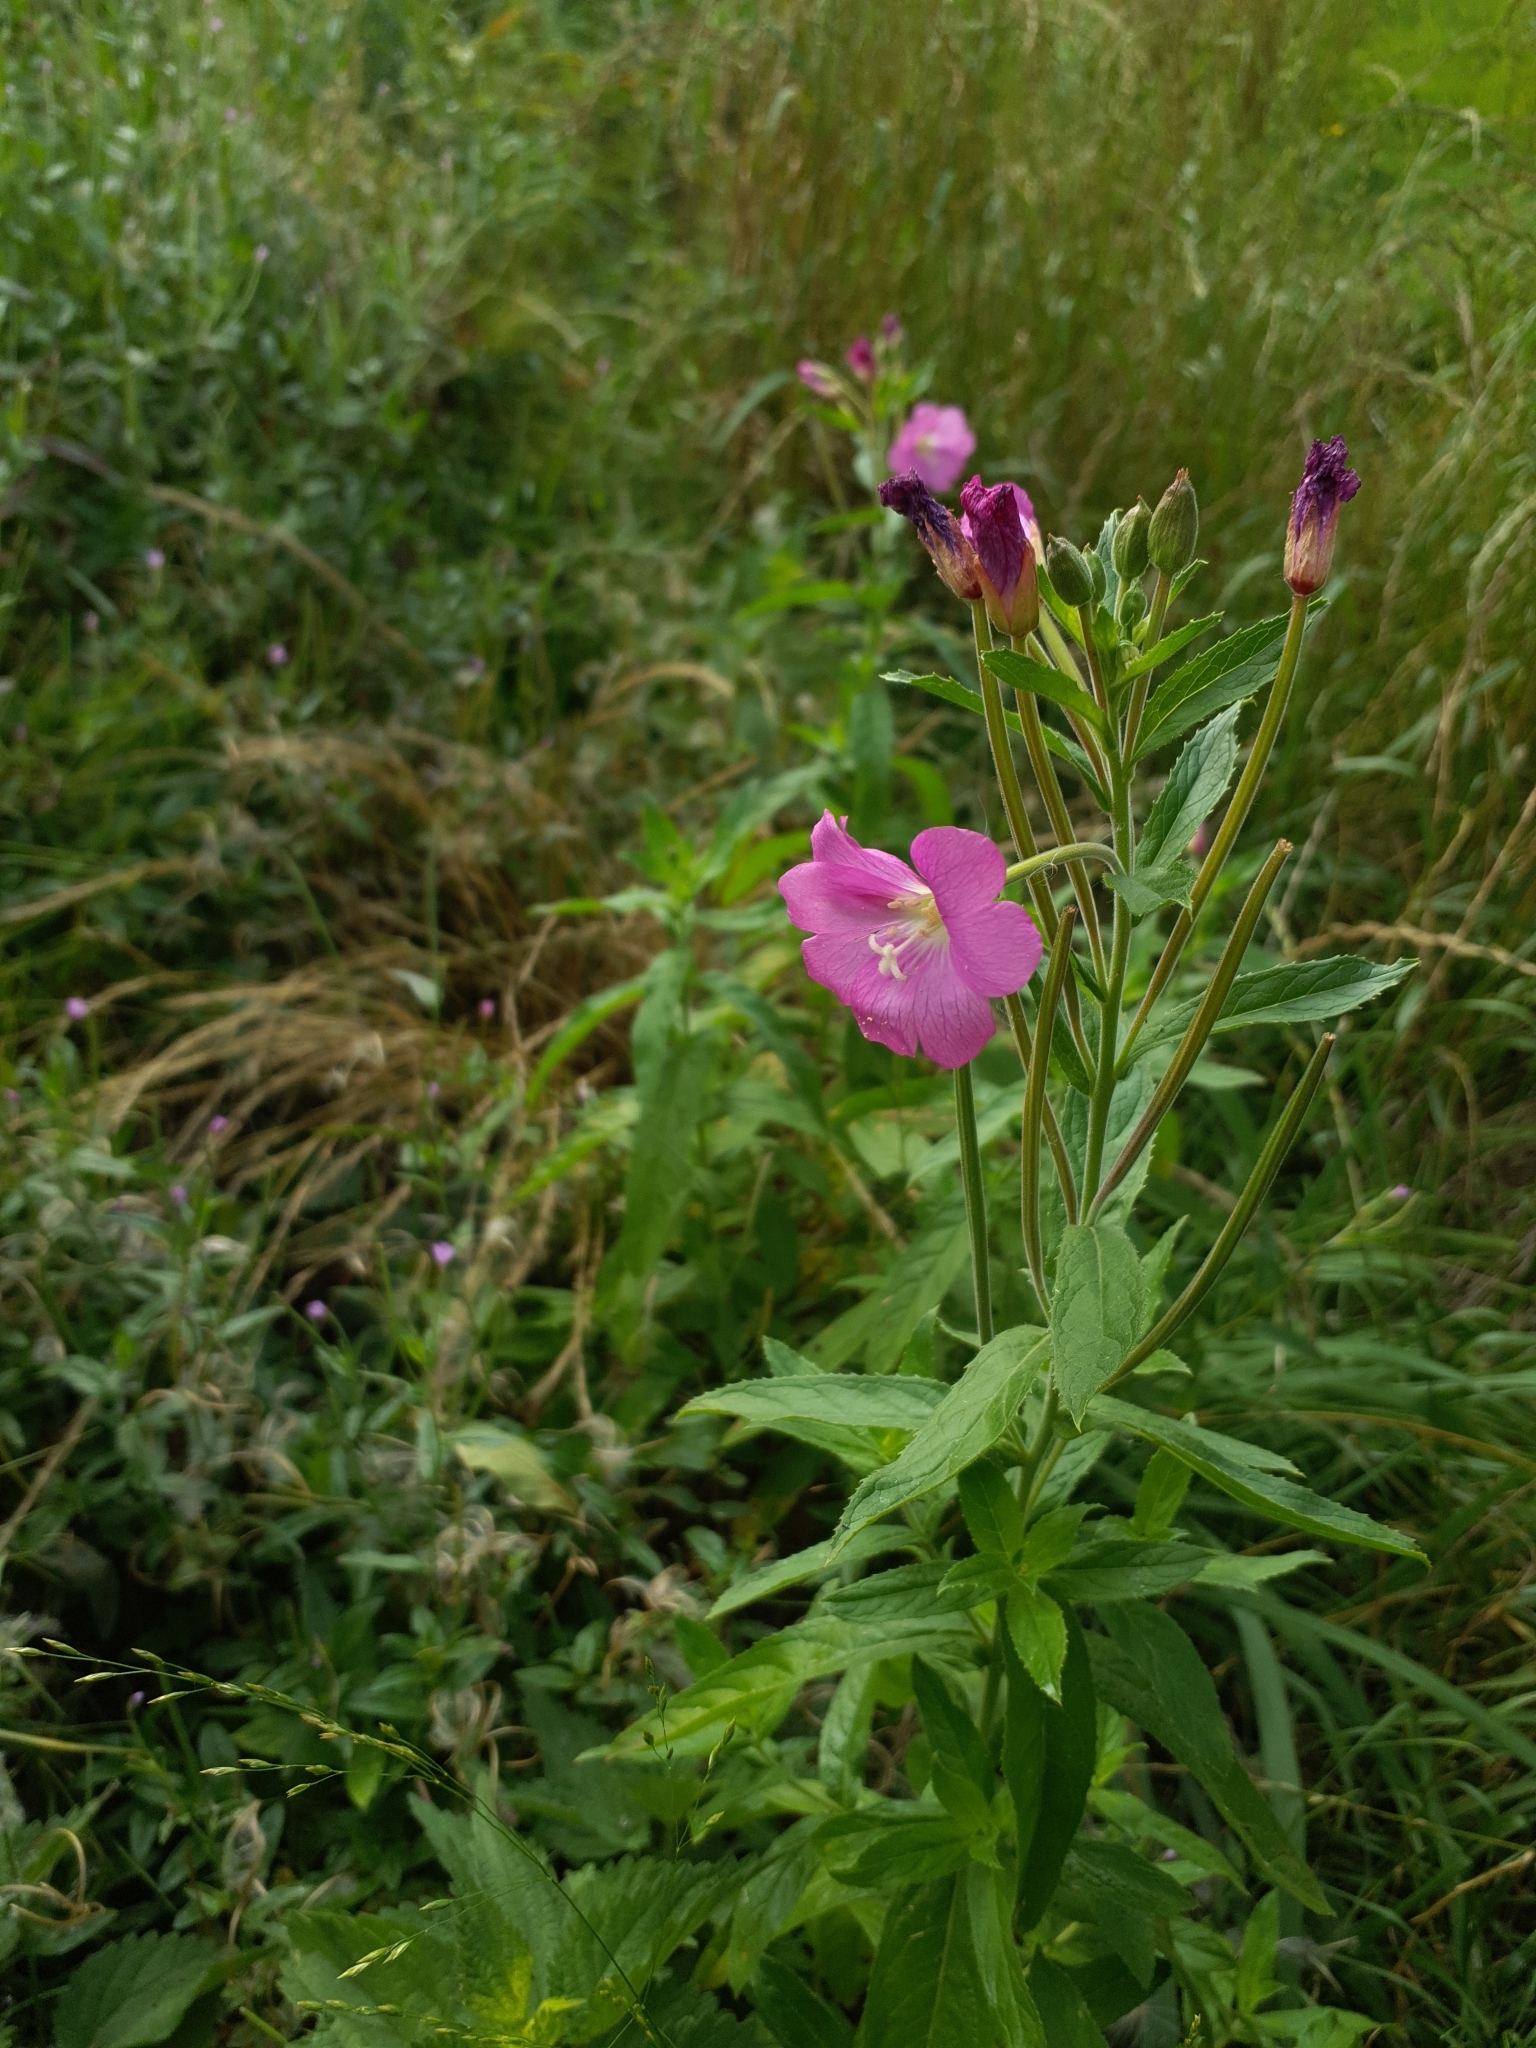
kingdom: Plantae
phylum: Tracheophyta
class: Magnoliopsida
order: Myrtales
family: Onagraceae
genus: Epilobium
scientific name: Epilobium hirsutum
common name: Great willowherb
